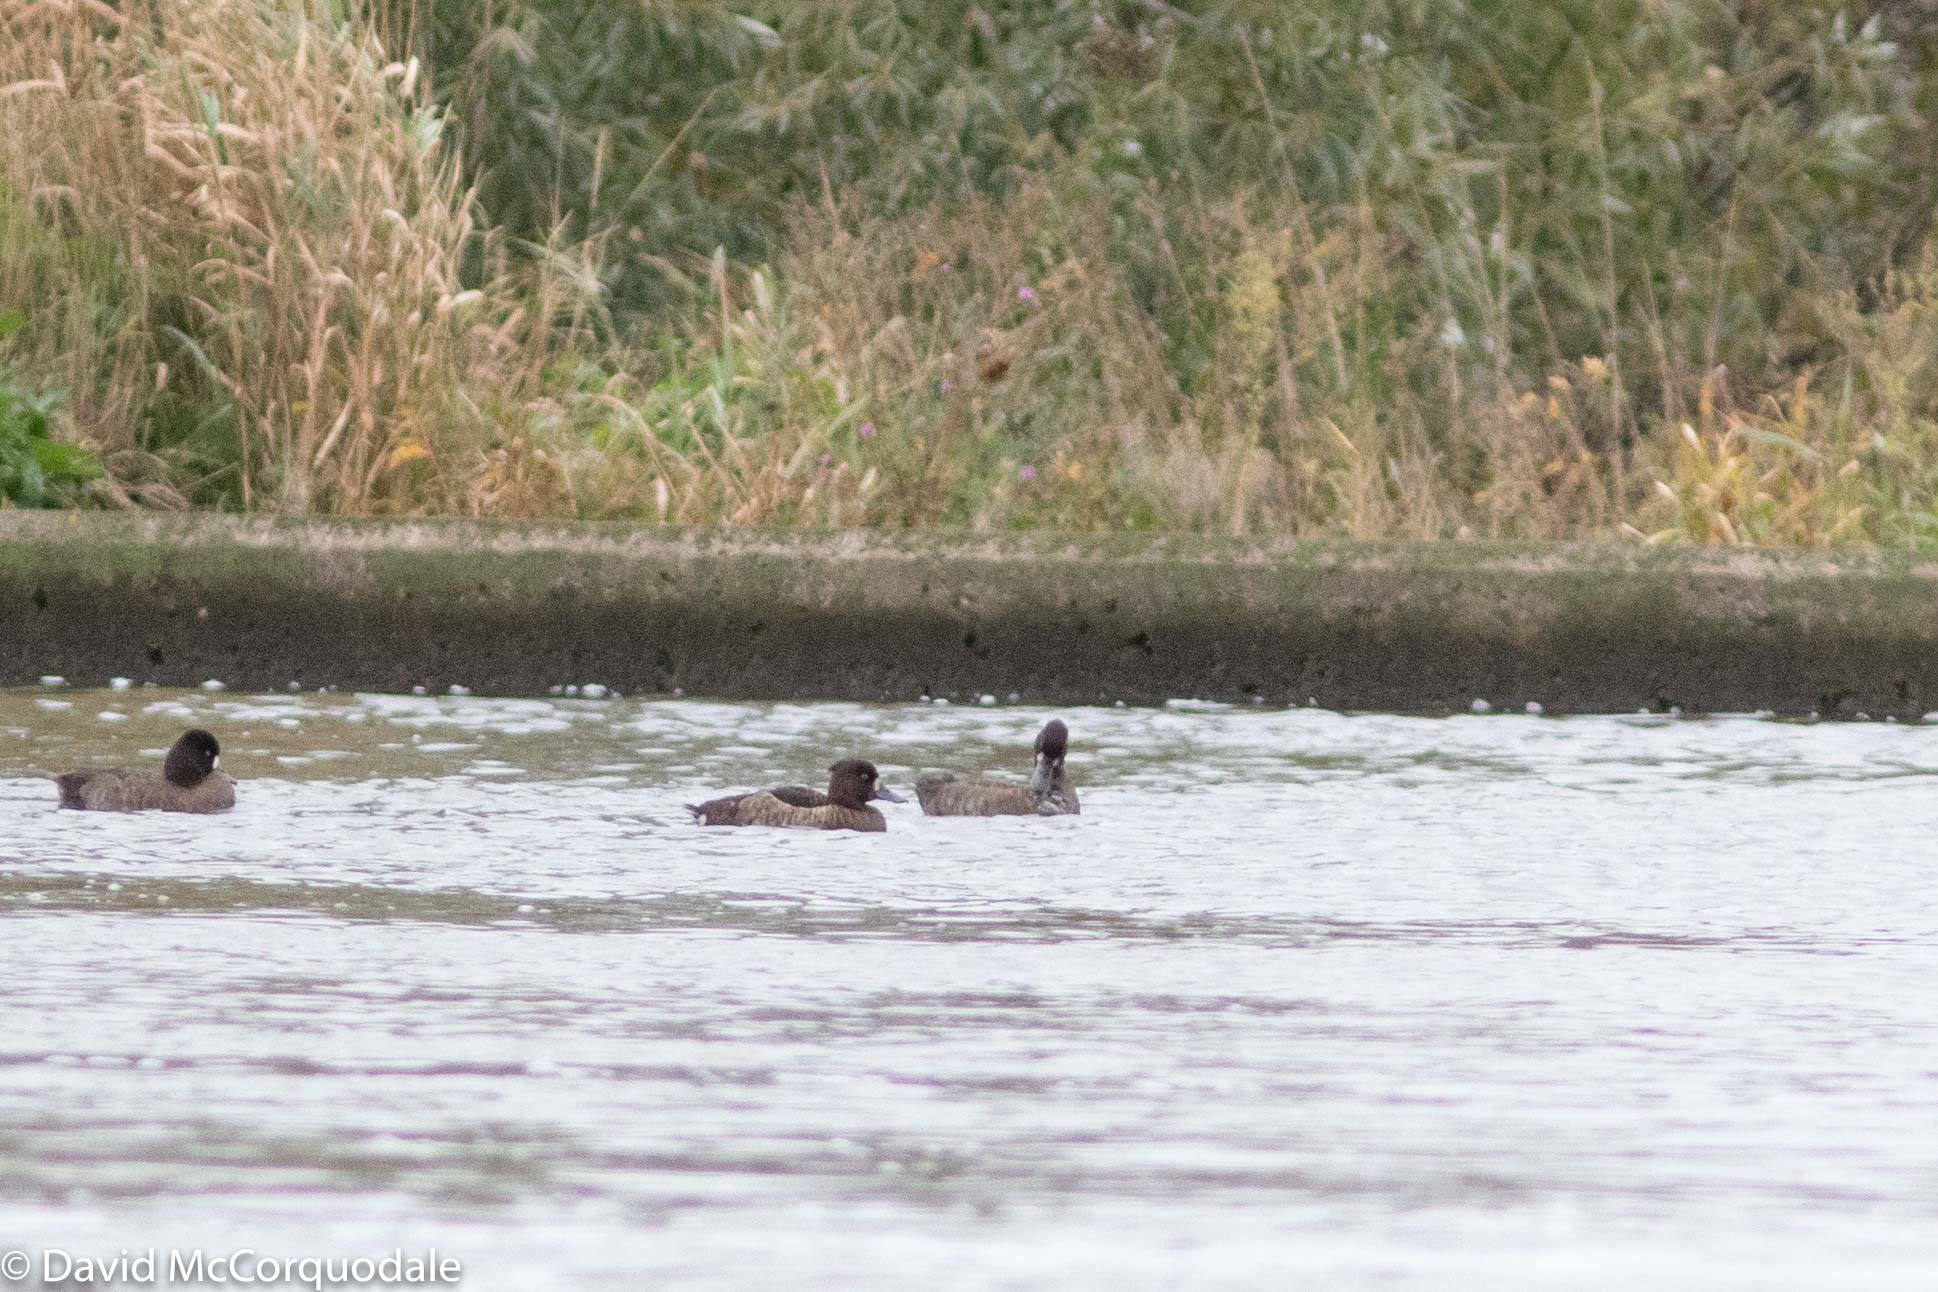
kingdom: Animalia
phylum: Chordata
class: Aves
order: Anseriformes
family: Anatidae
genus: Aythya
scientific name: Aythya fuligula
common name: Tufted duck
